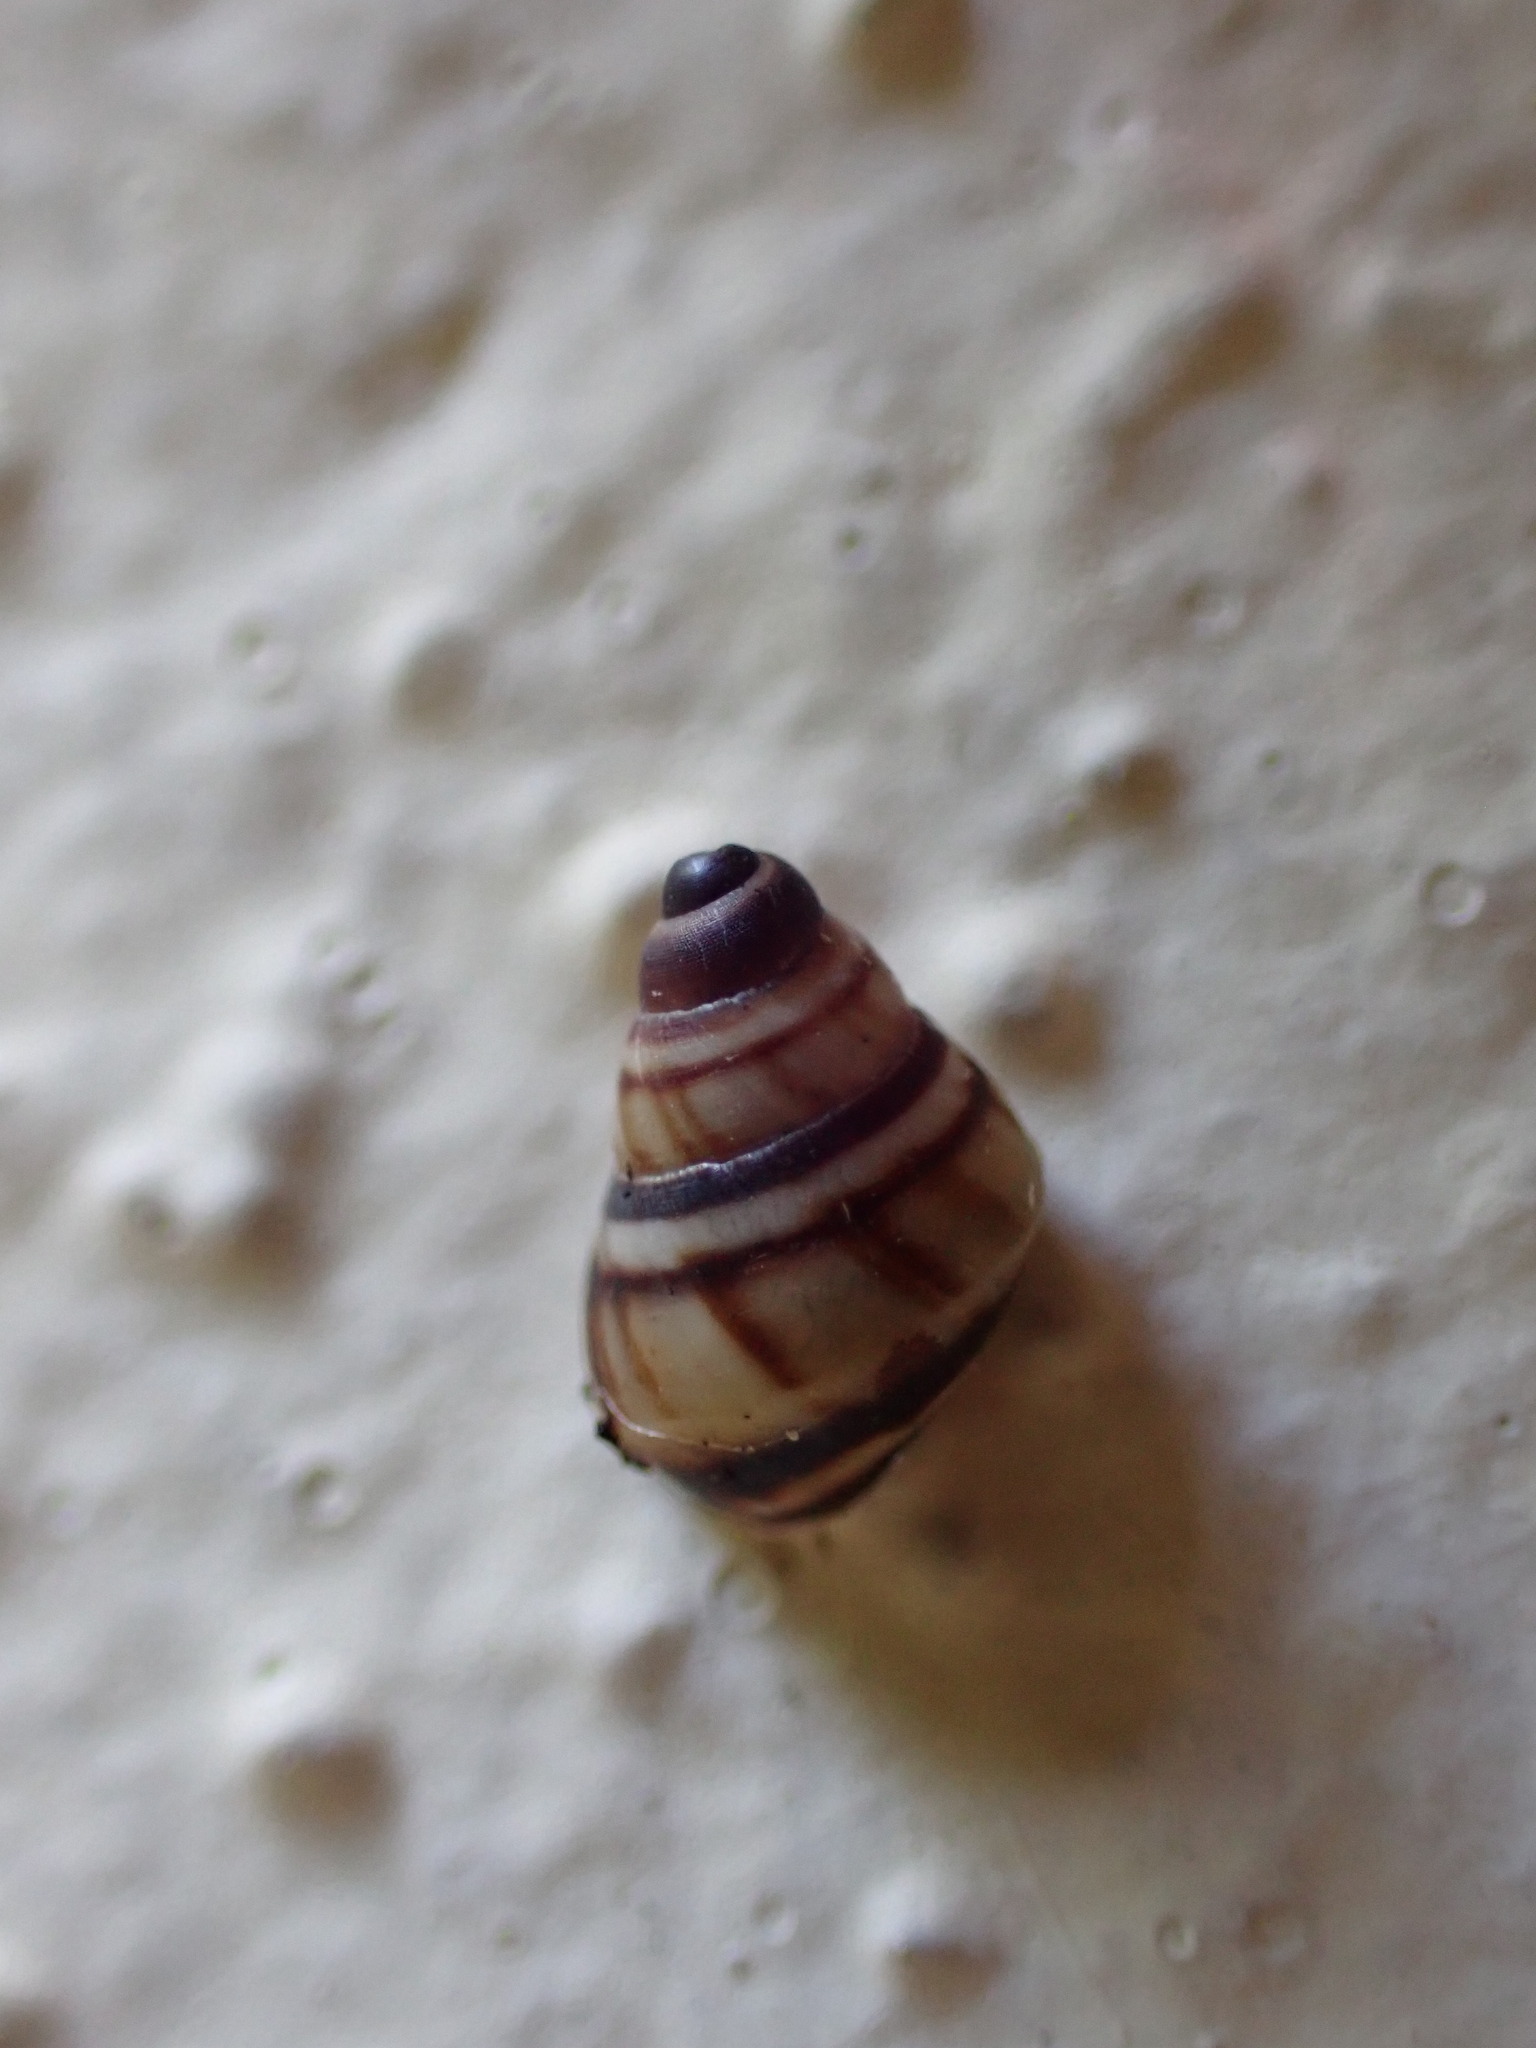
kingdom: Animalia
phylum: Mollusca
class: Gastropoda
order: Stylommatophora
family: Bulimulidae
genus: Drymaeus
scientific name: Drymaeus
